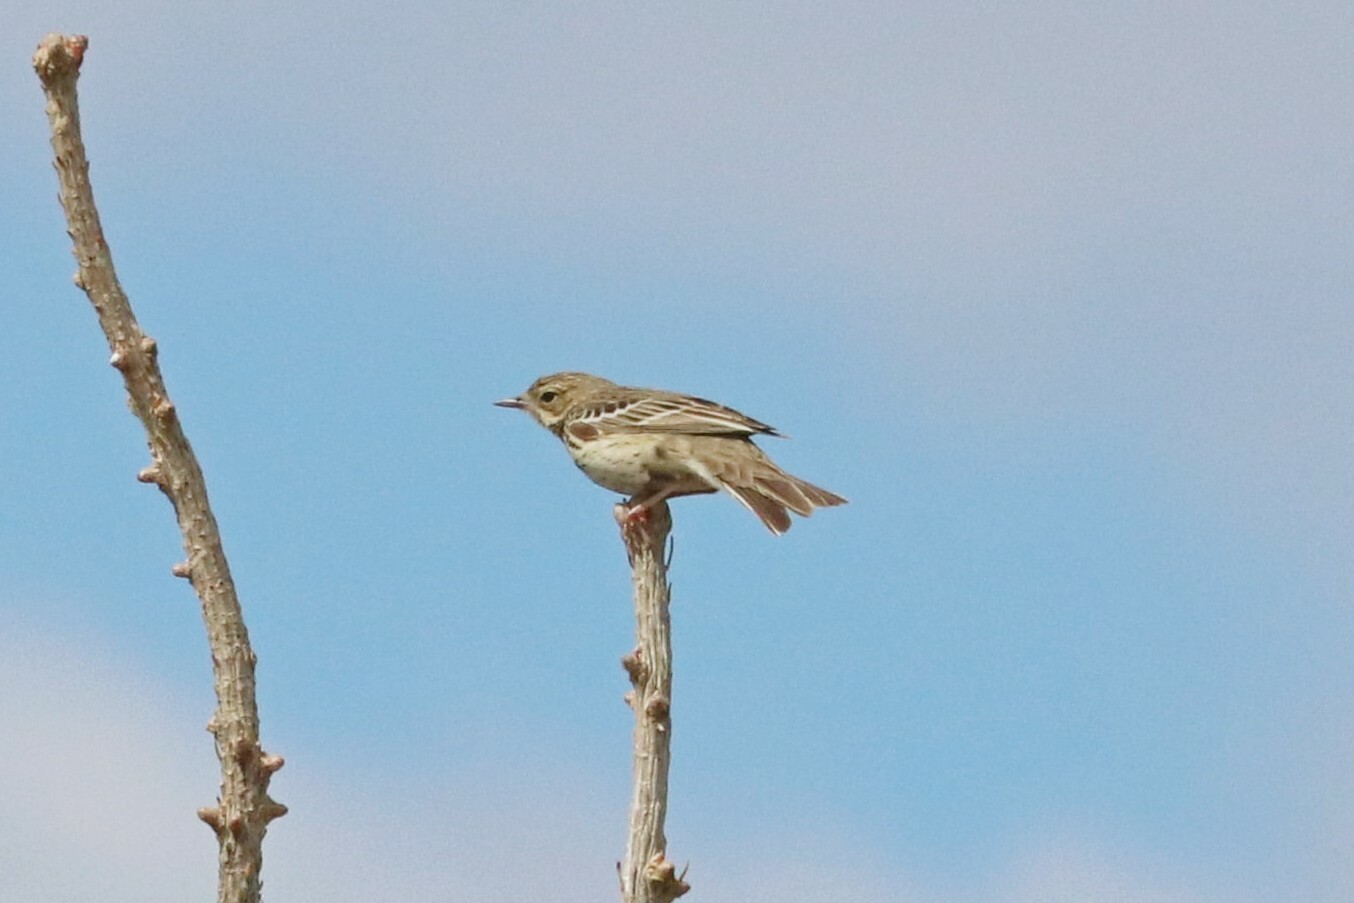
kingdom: Animalia
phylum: Chordata
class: Aves
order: Passeriformes
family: Motacillidae
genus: Anthus
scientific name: Anthus trivialis
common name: Tree pipit
